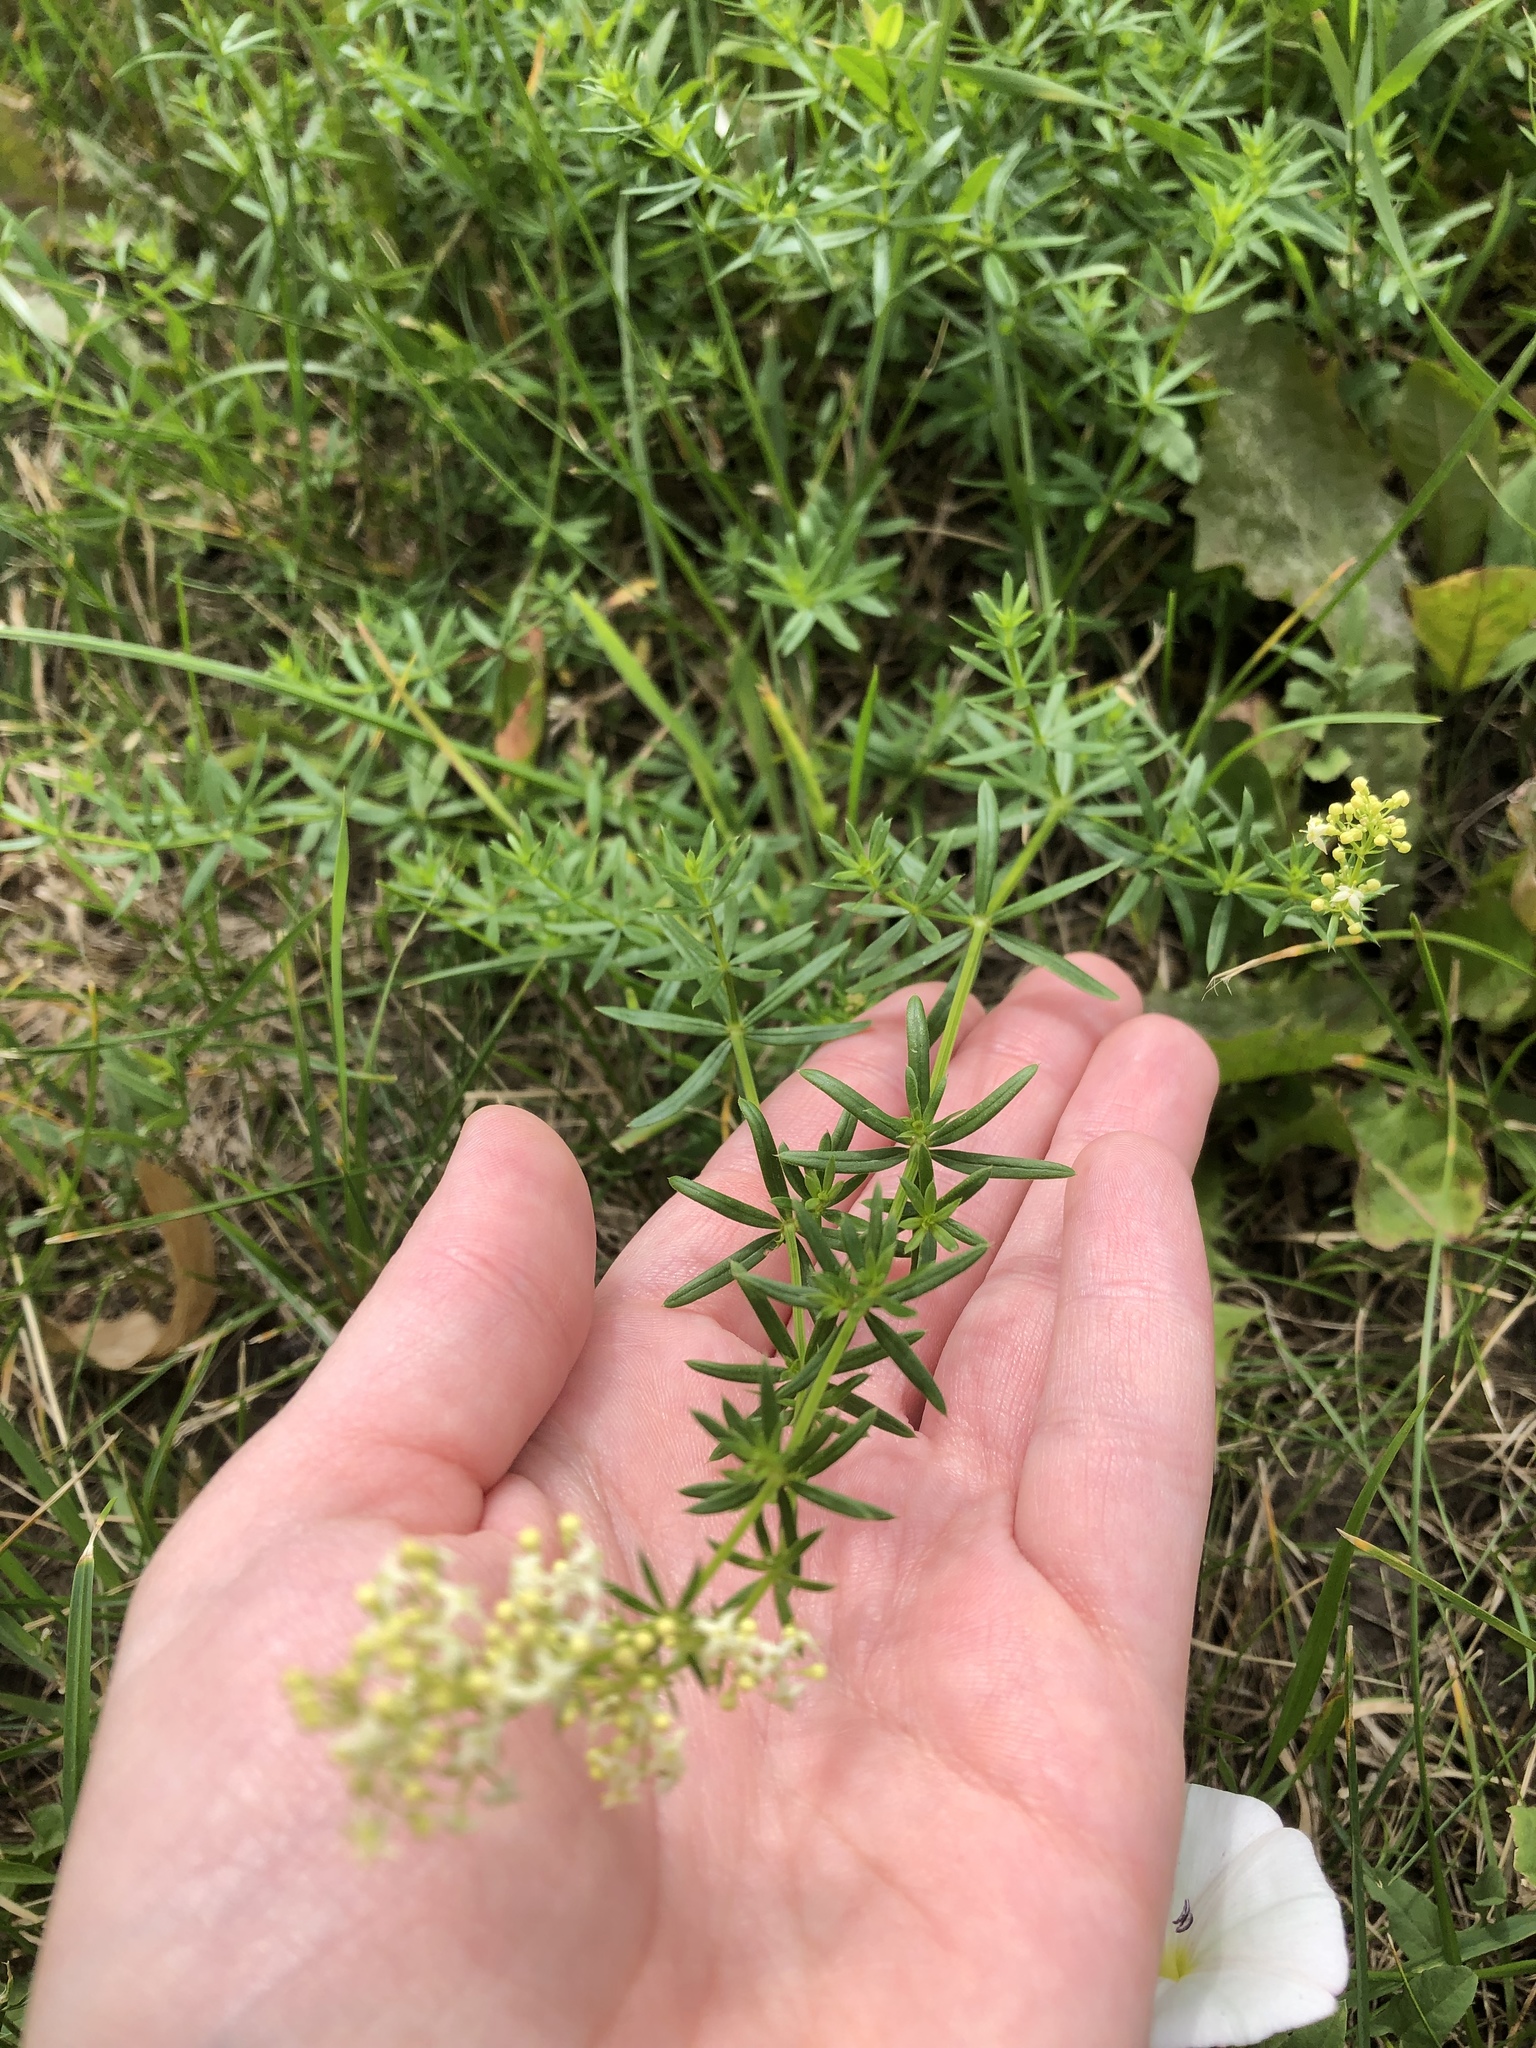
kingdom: Plantae
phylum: Tracheophyta
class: Magnoliopsida
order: Gentianales
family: Rubiaceae
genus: Galium
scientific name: Galium mollugo
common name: Hedge bedstraw
